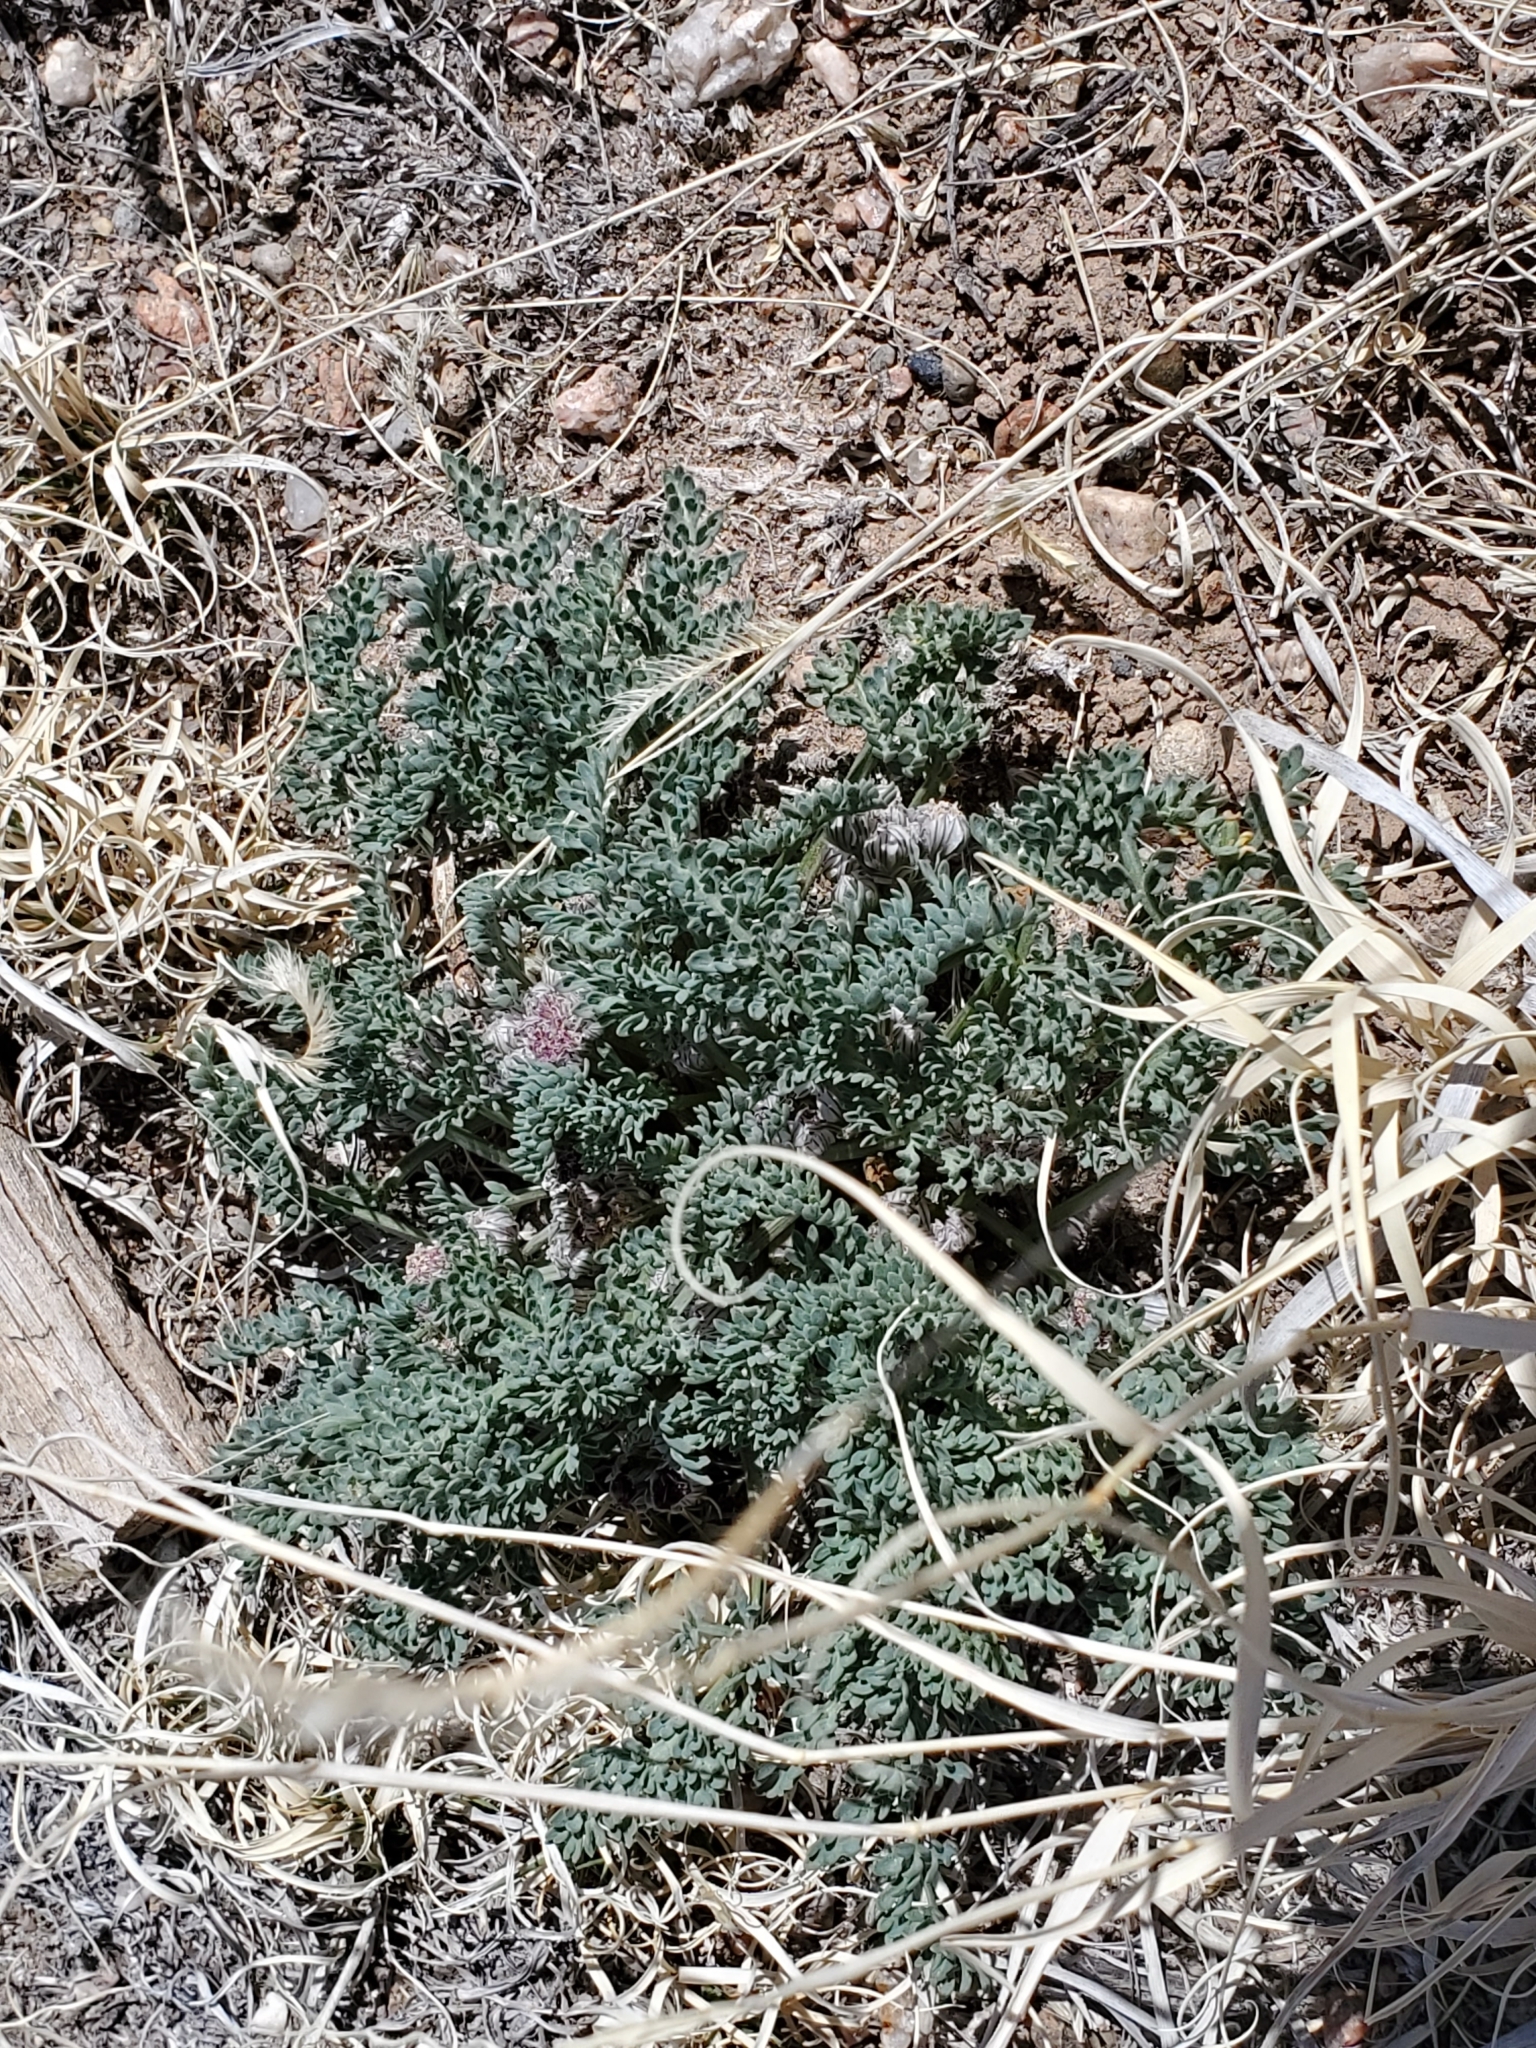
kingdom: Plantae
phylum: Tracheophyta
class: Magnoliopsida
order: Apiales
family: Apiaceae
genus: Vesper
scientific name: Vesper constancei
